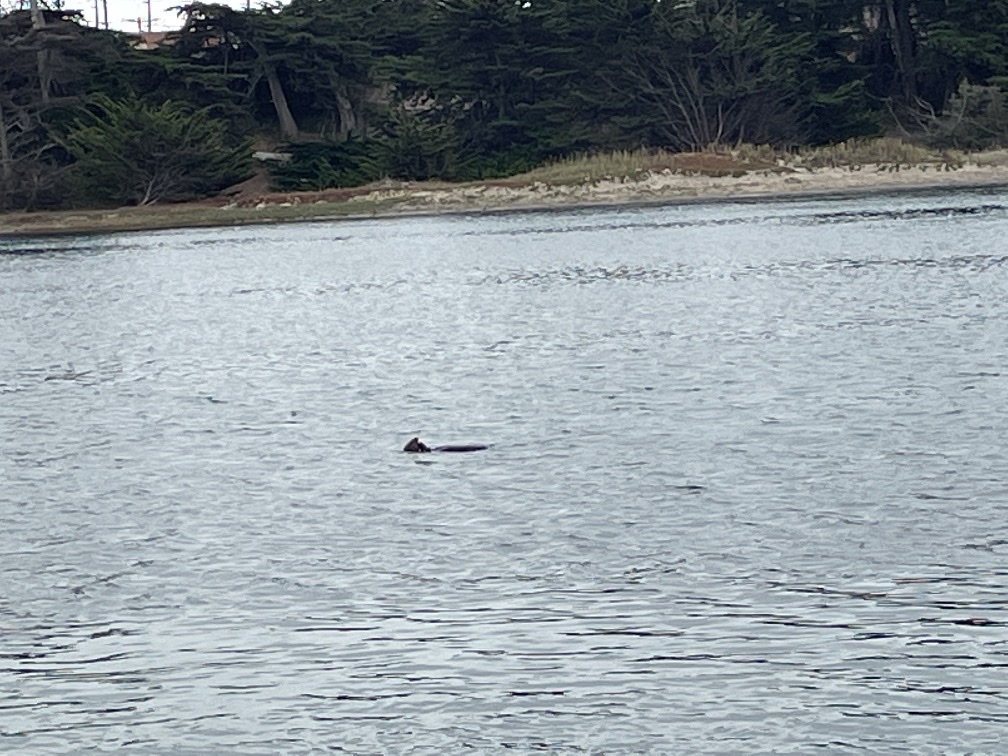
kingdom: Animalia
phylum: Chordata
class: Mammalia
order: Carnivora
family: Mustelidae
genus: Enhydra
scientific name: Enhydra lutris
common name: Sea otter
